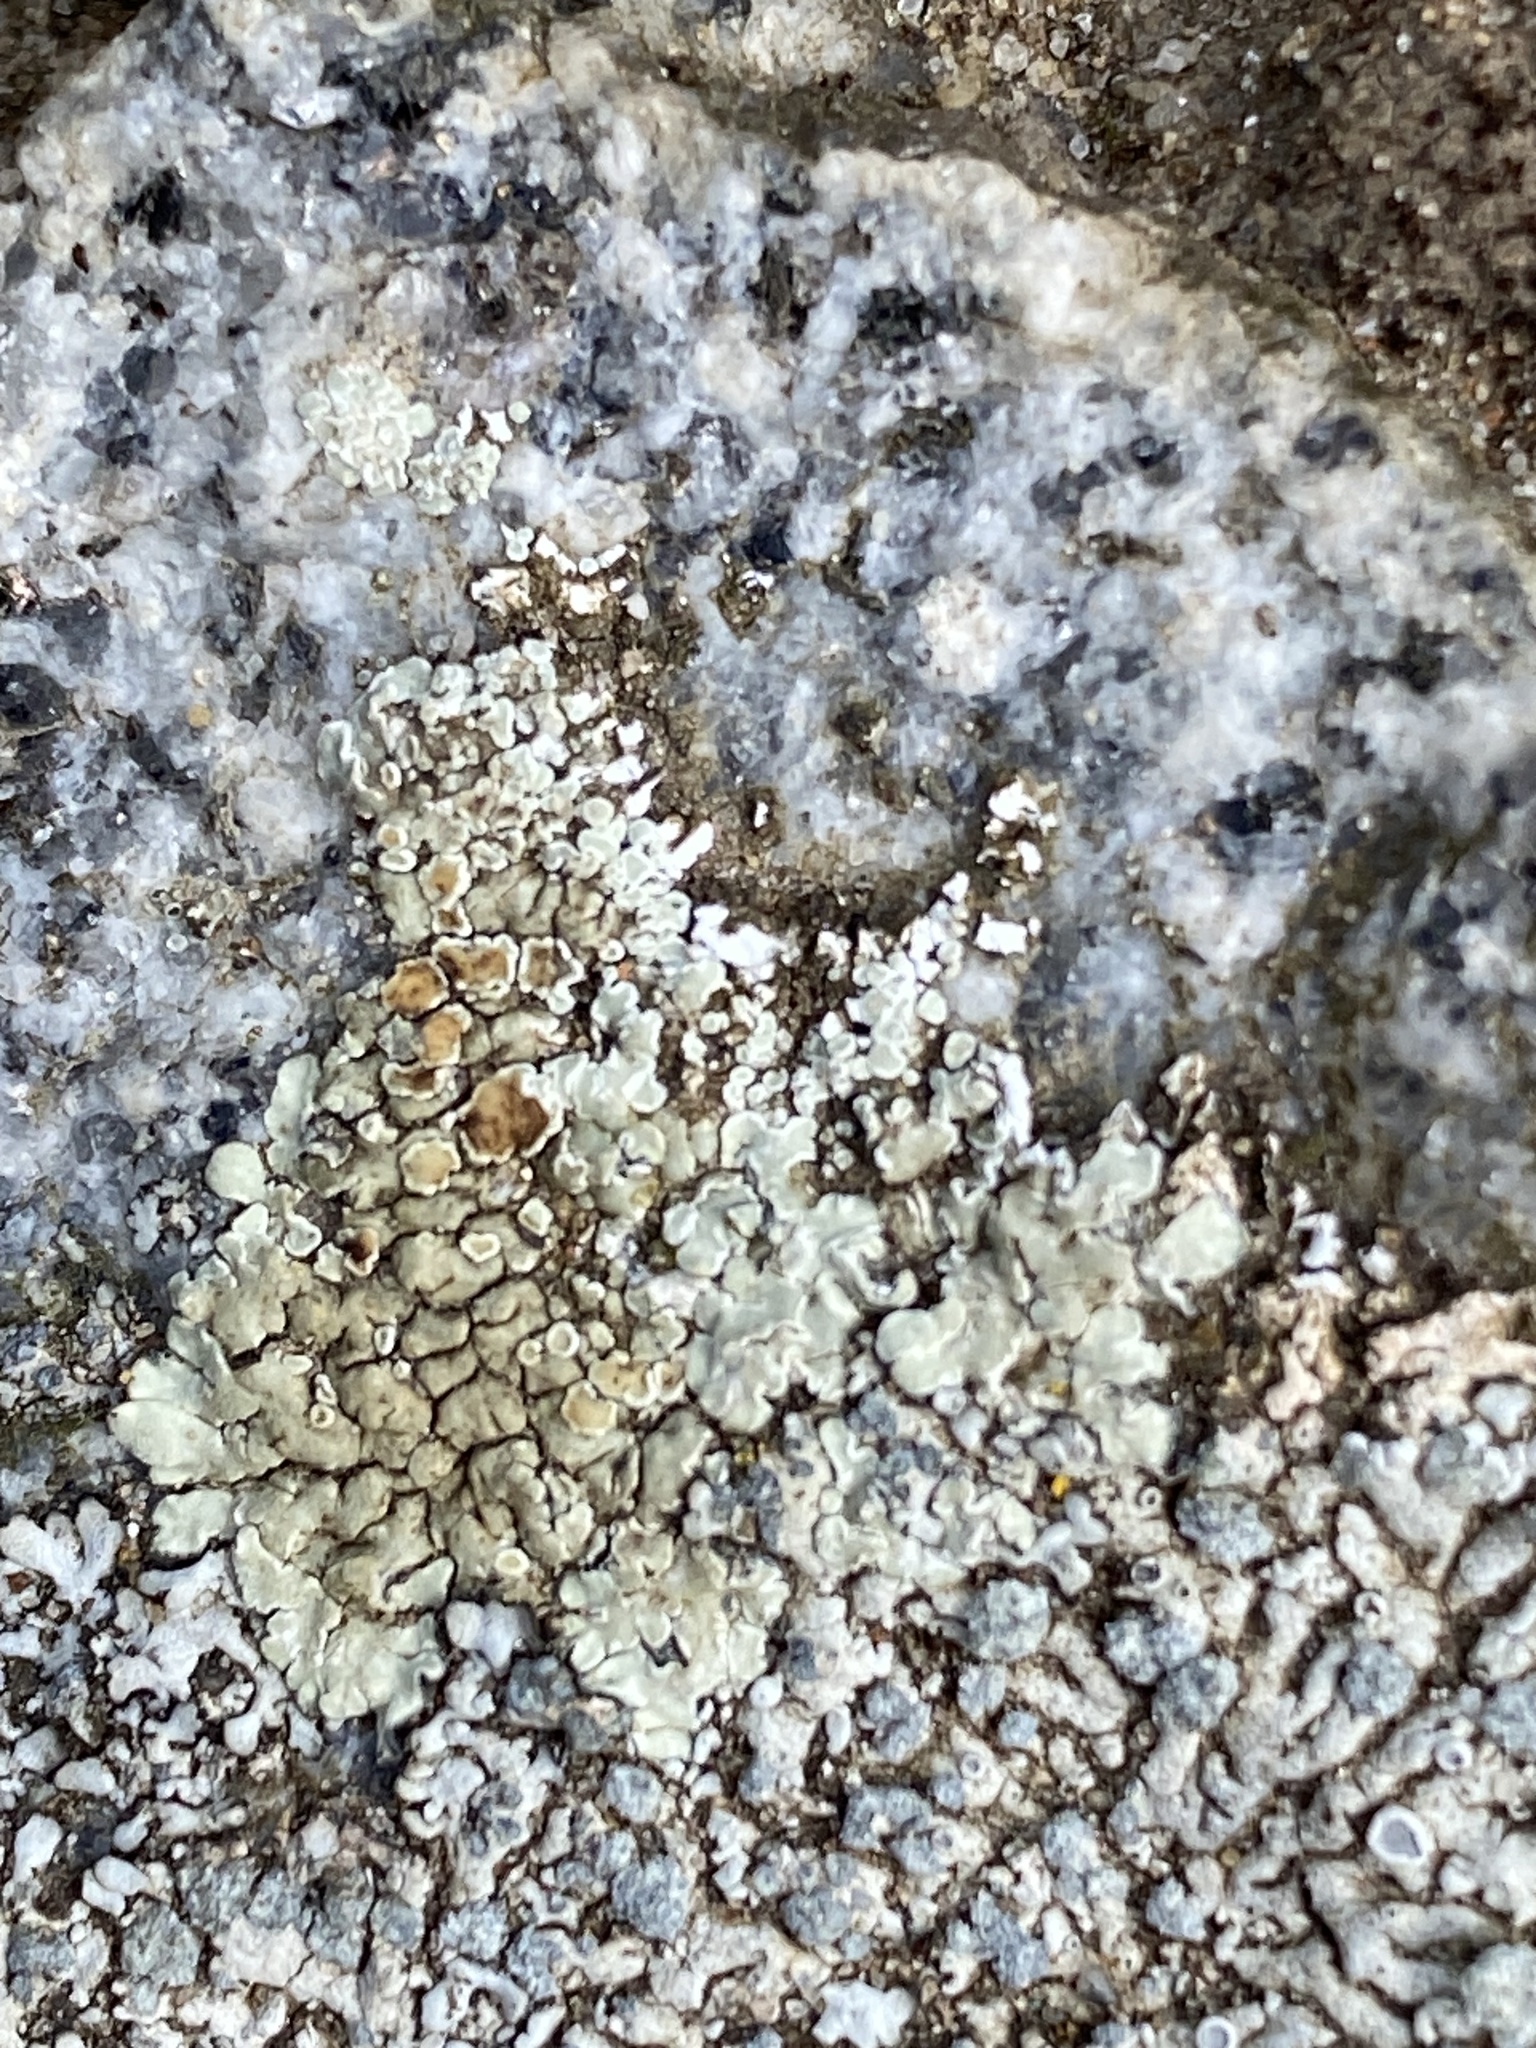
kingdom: Fungi
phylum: Ascomycota
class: Lecanoromycetes
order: Lecanorales
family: Lecanoraceae
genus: Protoparmeliopsis
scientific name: Protoparmeliopsis muralis
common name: Stonewall rim lichen
